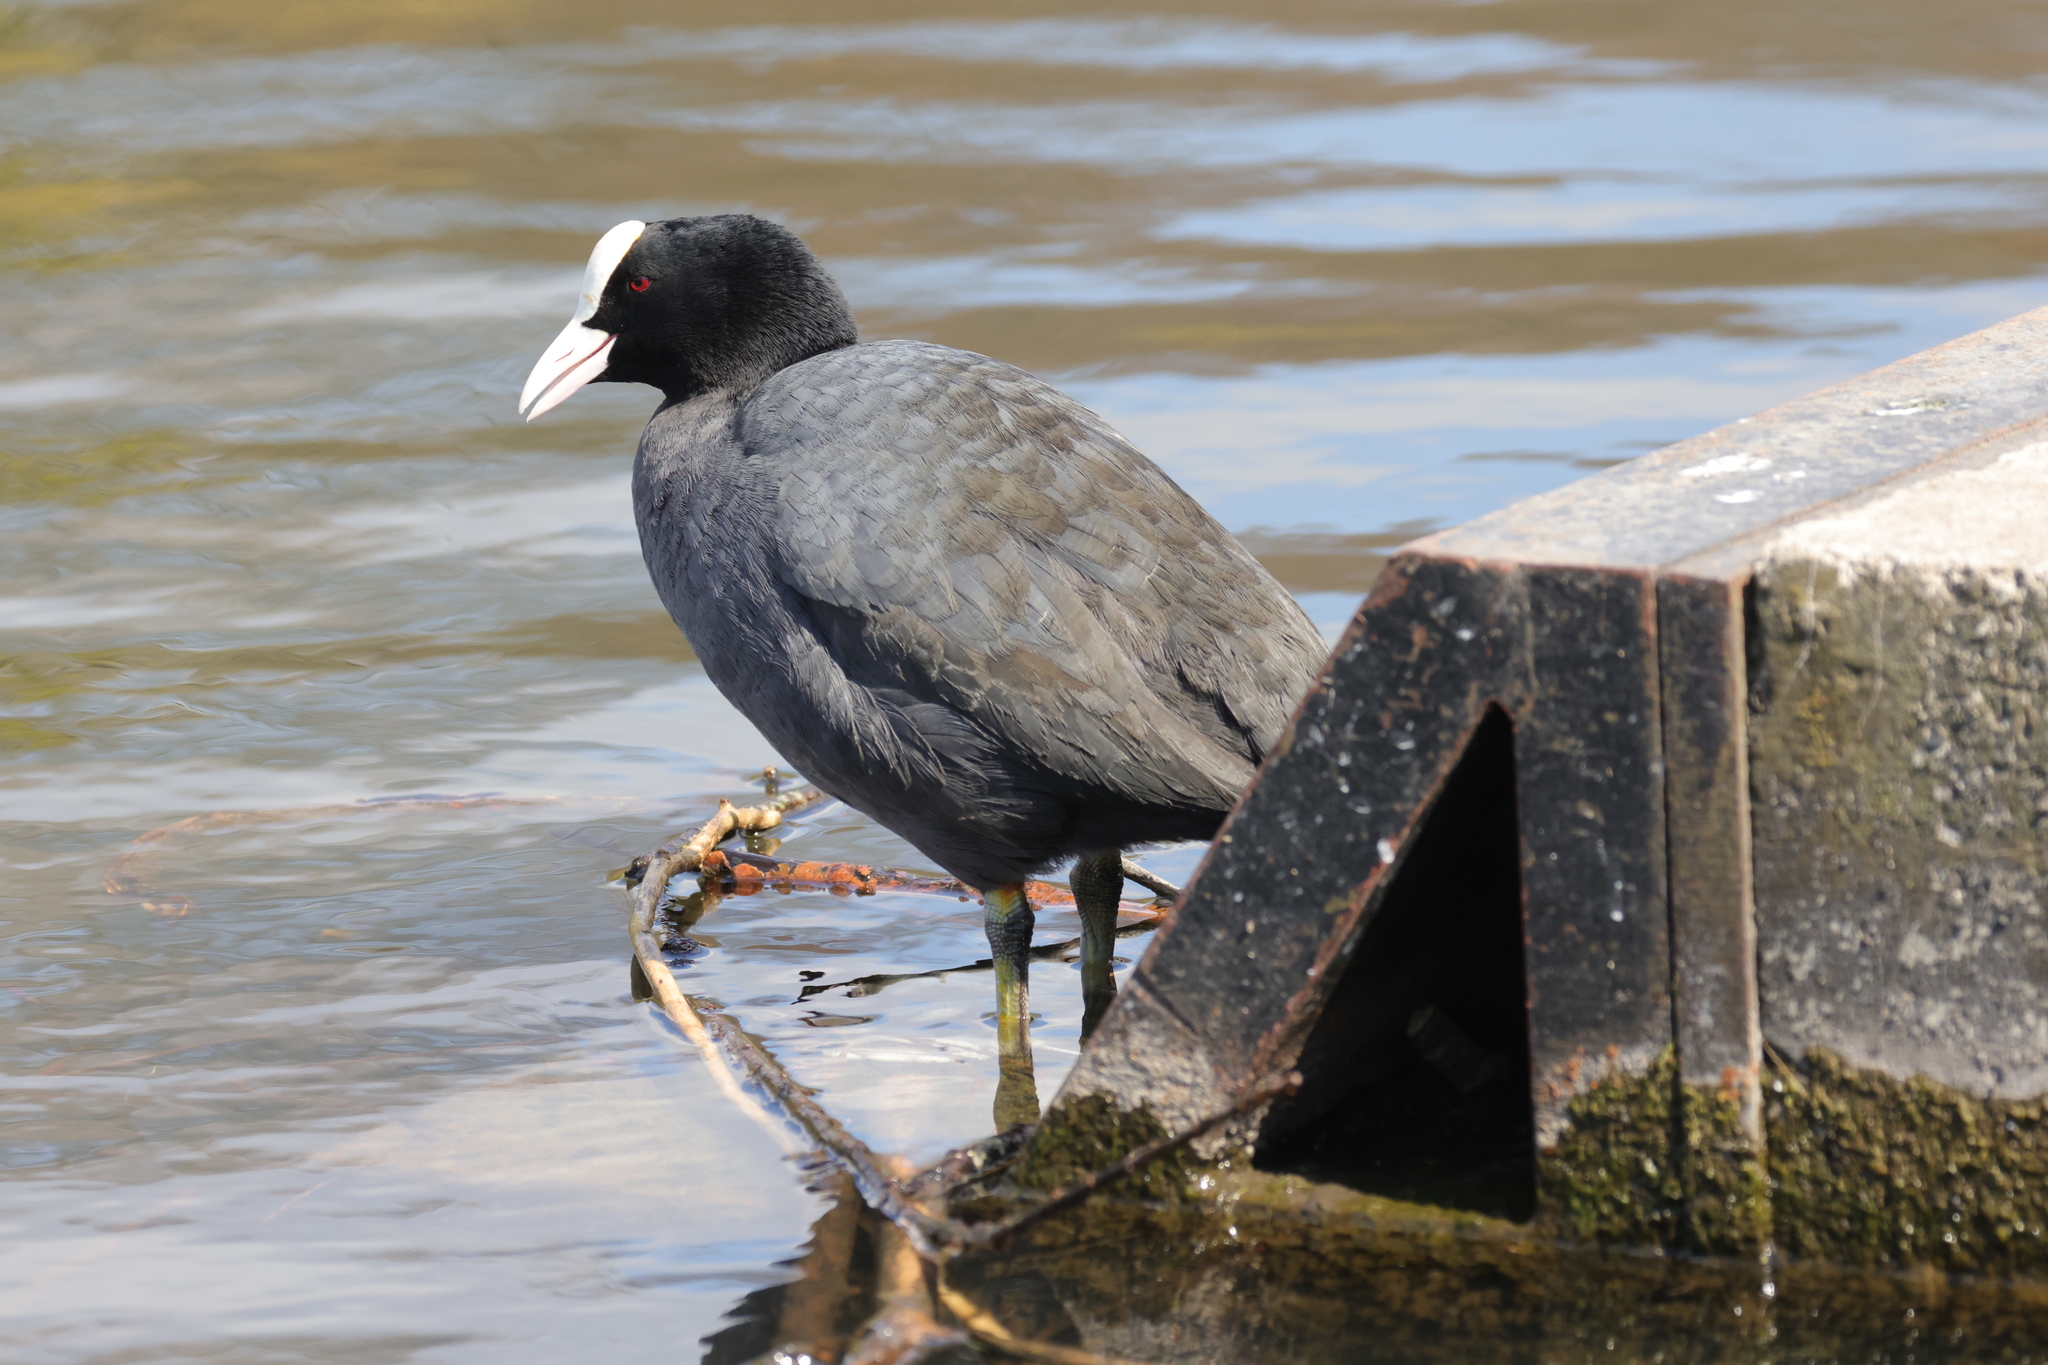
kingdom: Animalia
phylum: Chordata
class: Aves
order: Gruiformes
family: Rallidae
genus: Fulica
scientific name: Fulica atra
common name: Eurasian coot
